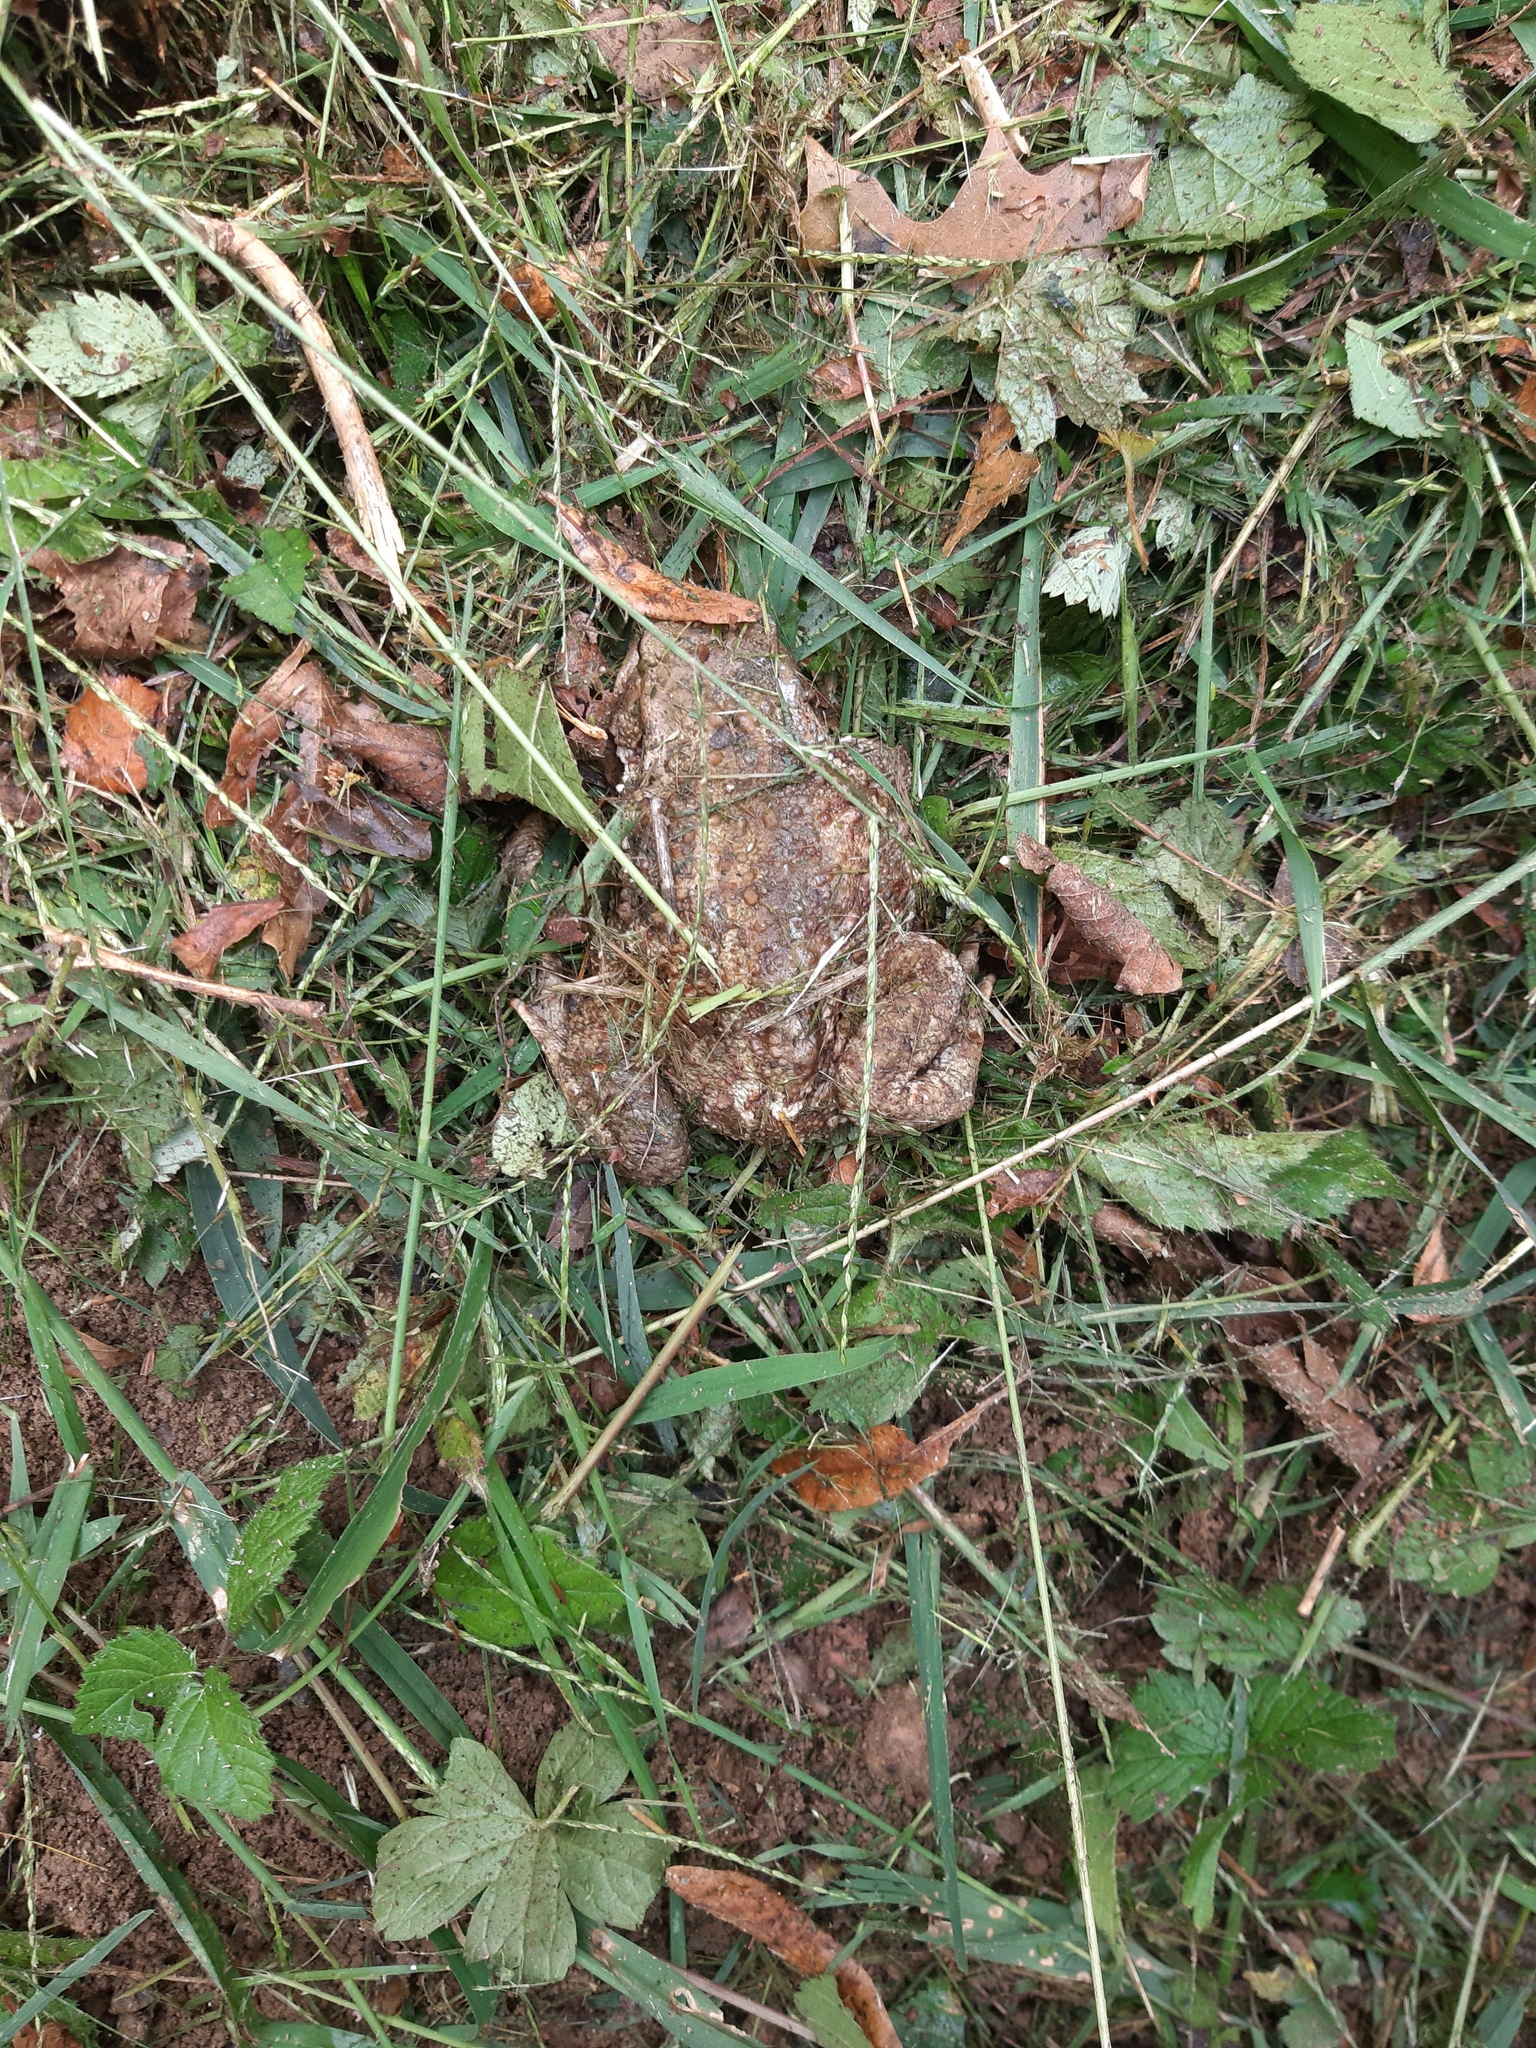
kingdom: Animalia
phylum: Chordata
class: Amphibia
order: Anura
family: Bufonidae
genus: Bufo
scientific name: Bufo bufo
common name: Common toad
